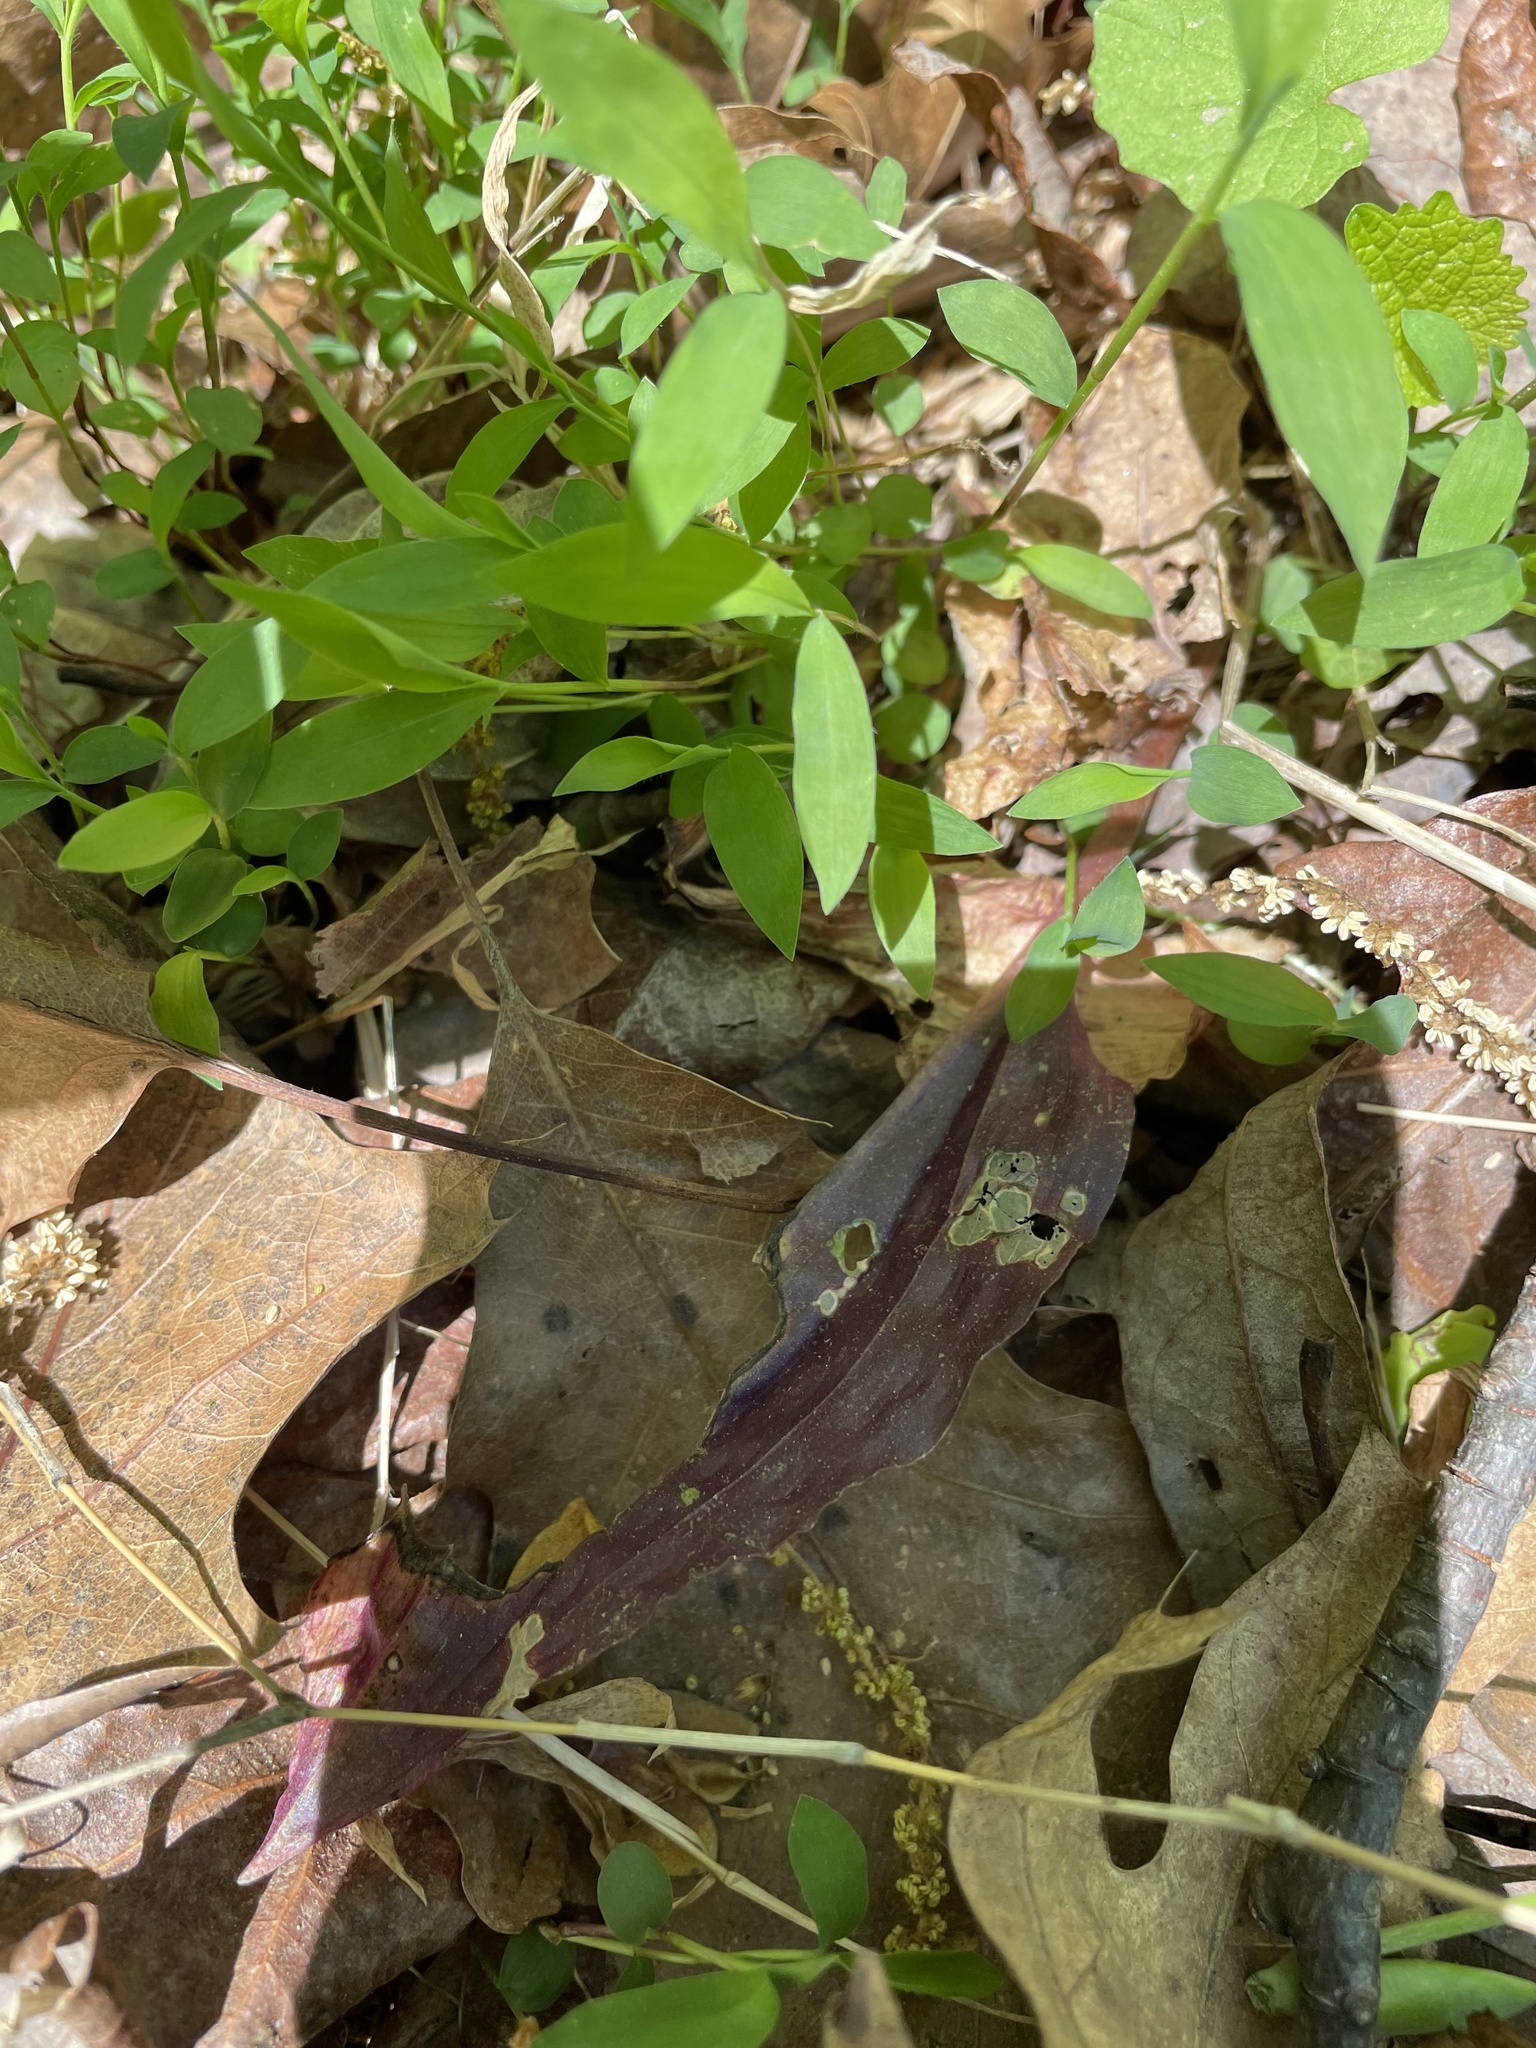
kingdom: Plantae
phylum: Tracheophyta
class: Liliopsida
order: Asparagales
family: Orchidaceae
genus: Tipularia
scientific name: Tipularia discolor
